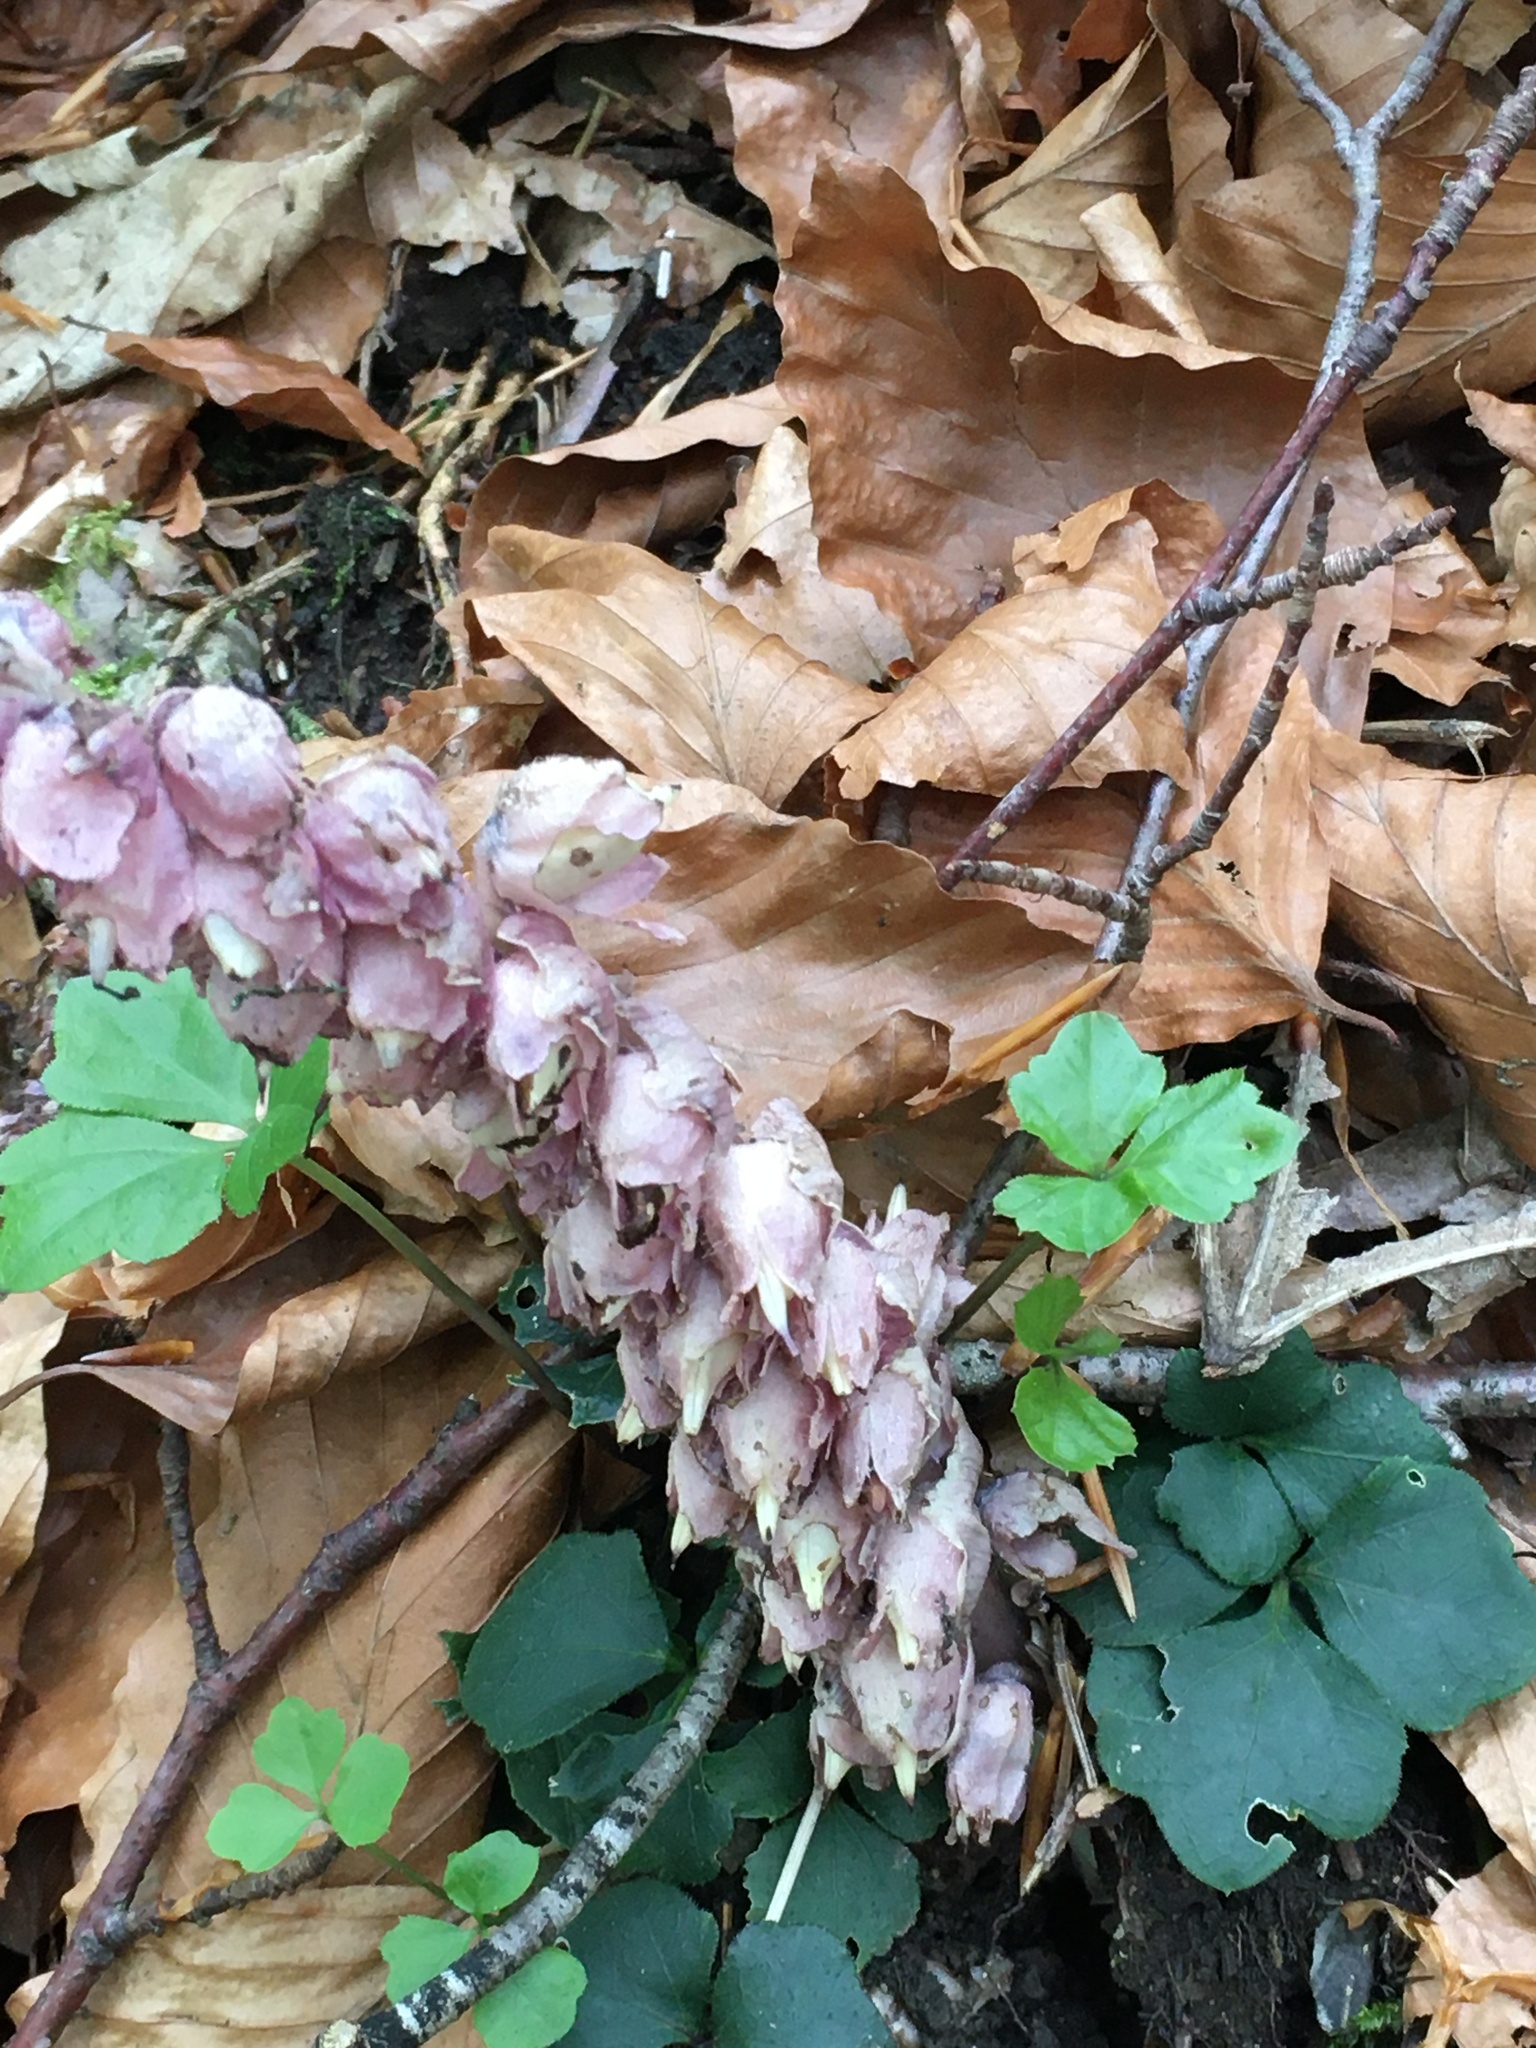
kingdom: Plantae
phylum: Tracheophyta
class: Magnoliopsida
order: Lamiales
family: Orobanchaceae
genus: Lathraea
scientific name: Lathraea squamaria
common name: Toothwort
